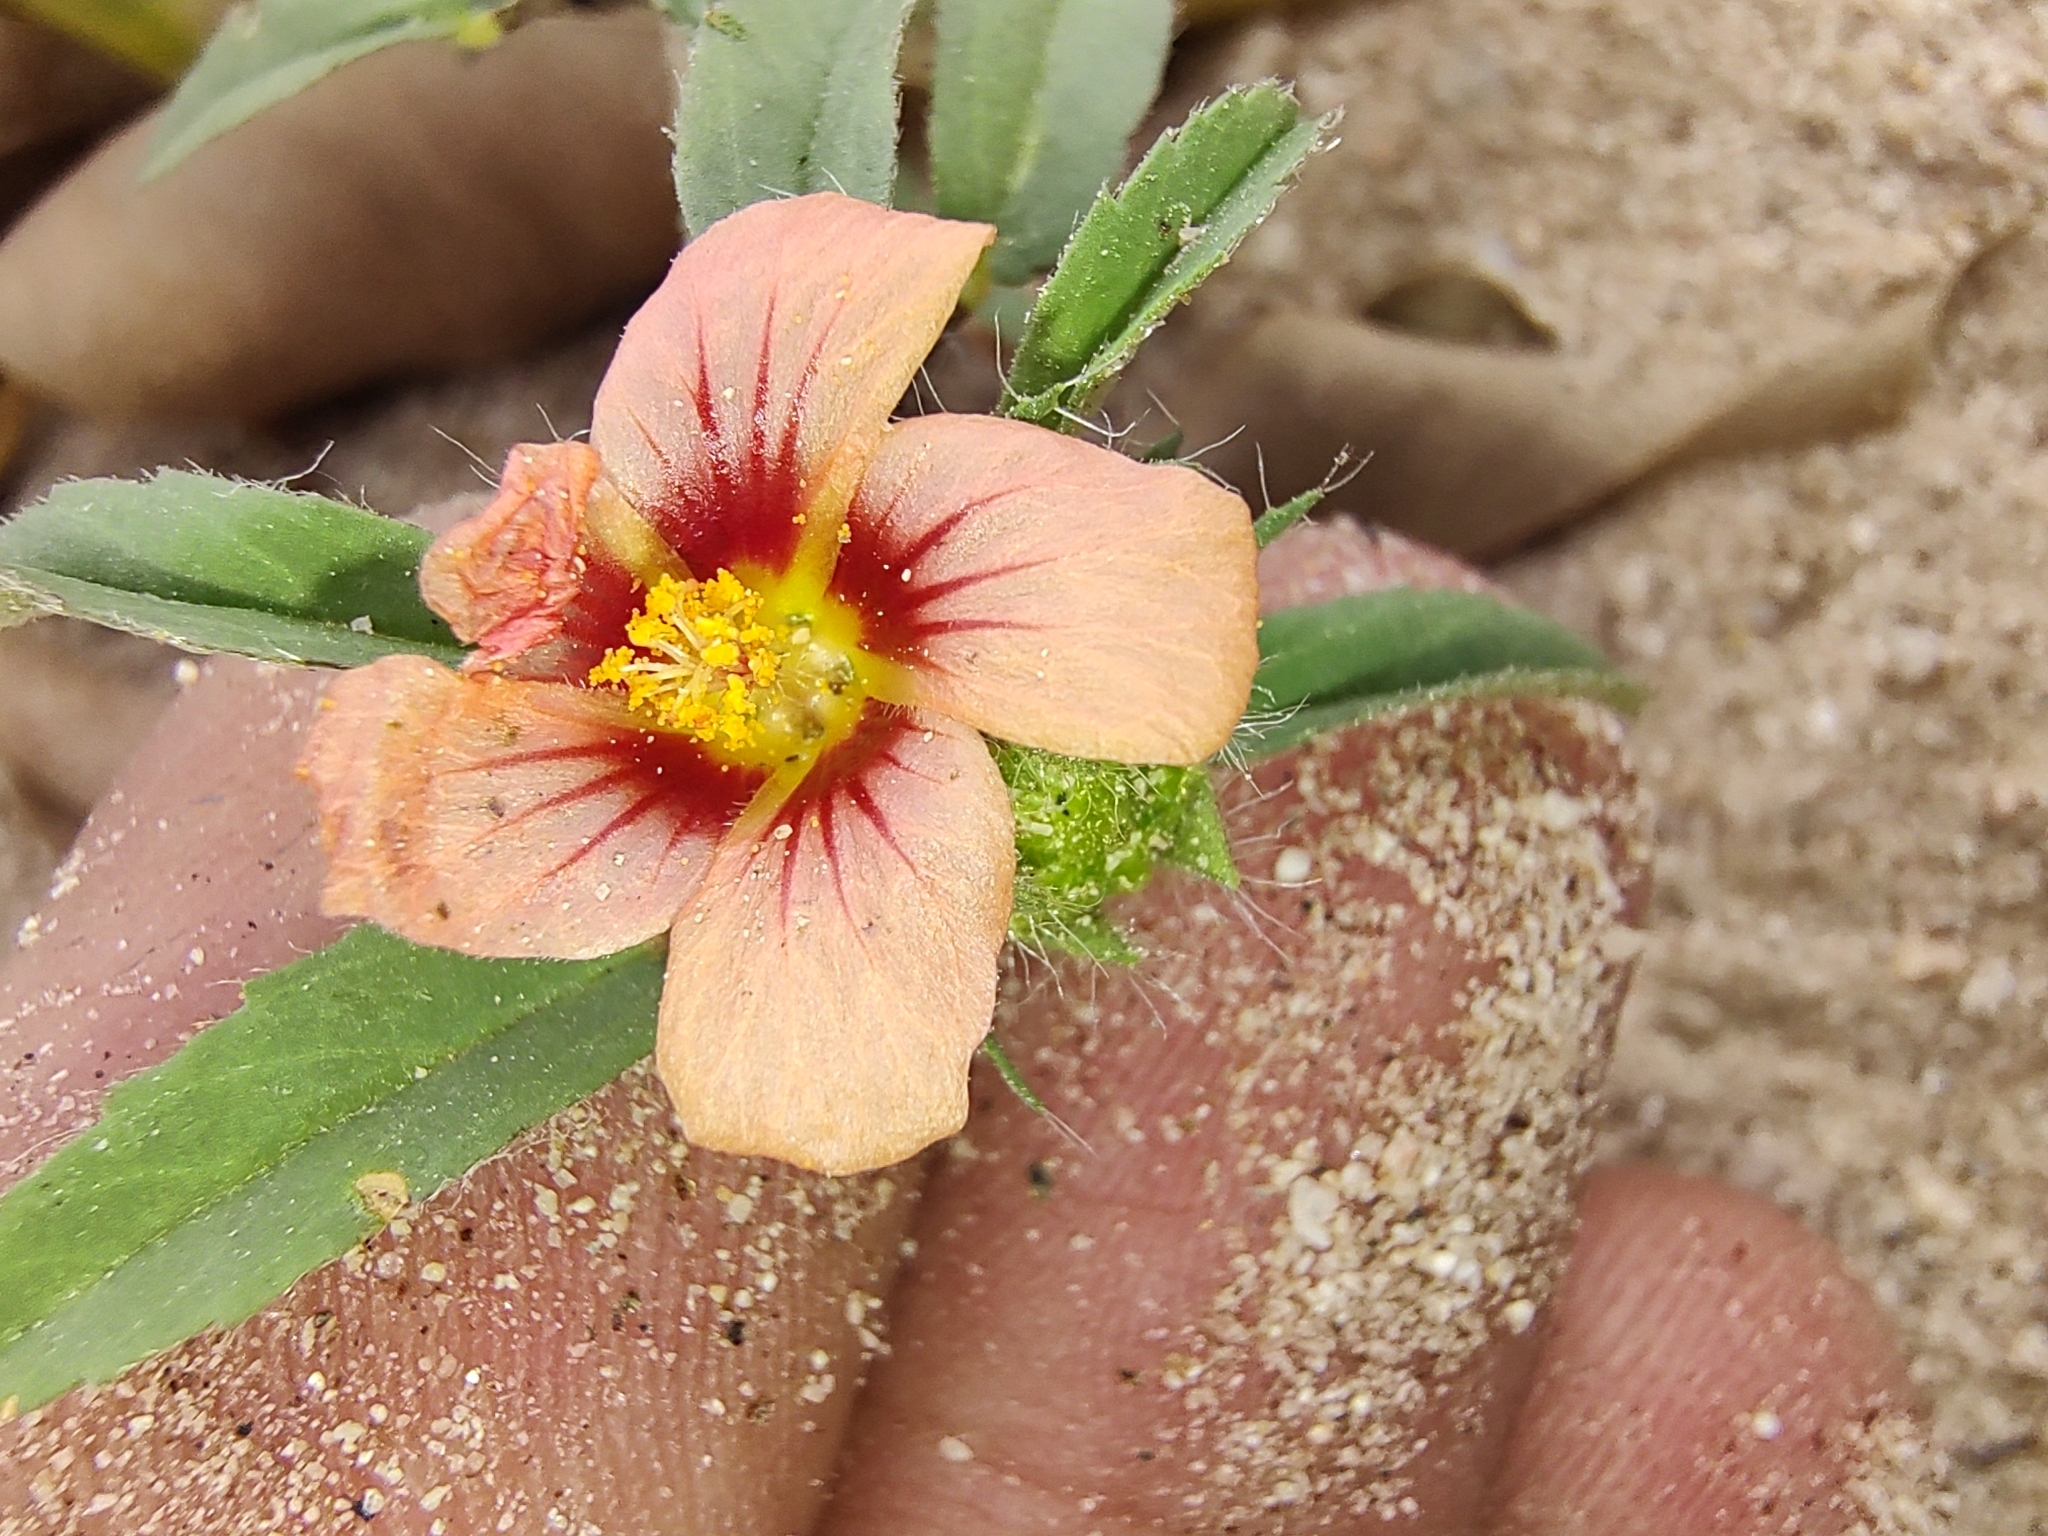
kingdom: Plantae
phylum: Tracheophyta
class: Magnoliopsida
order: Malvales
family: Malvaceae
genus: Sida
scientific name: Sida ciliaris
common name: Bracted fanpetals
